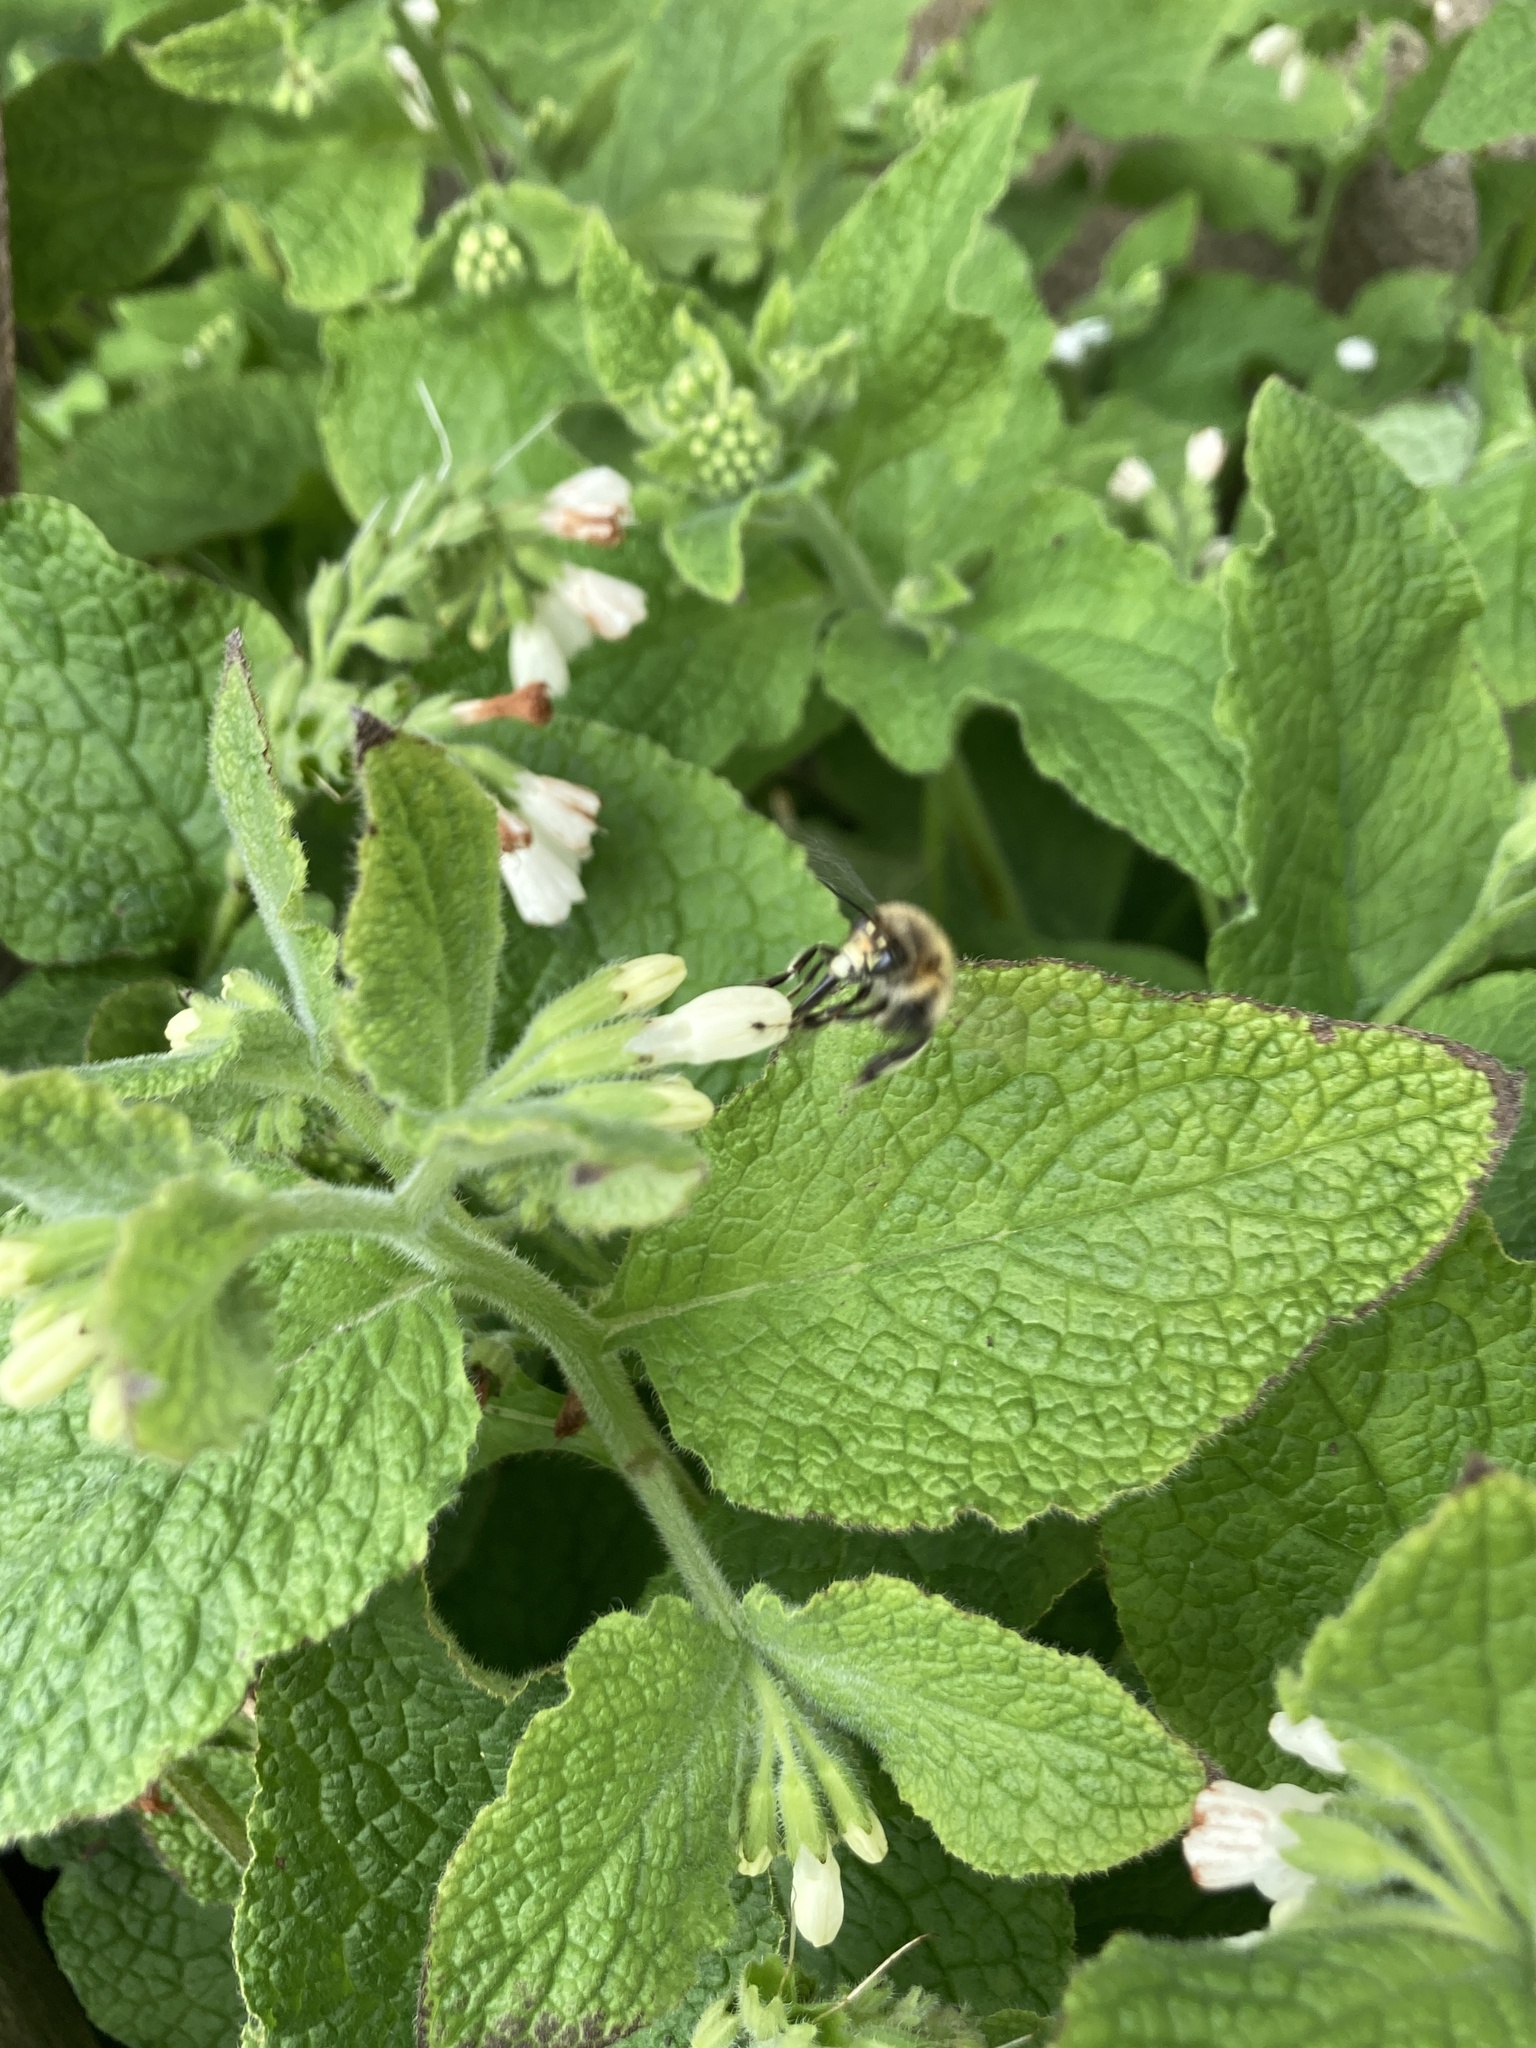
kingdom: Animalia
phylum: Arthropoda
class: Insecta
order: Hymenoptera
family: Apidae
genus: Anthophora
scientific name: Anthophora plumipes
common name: Hairy-footed flower bee
